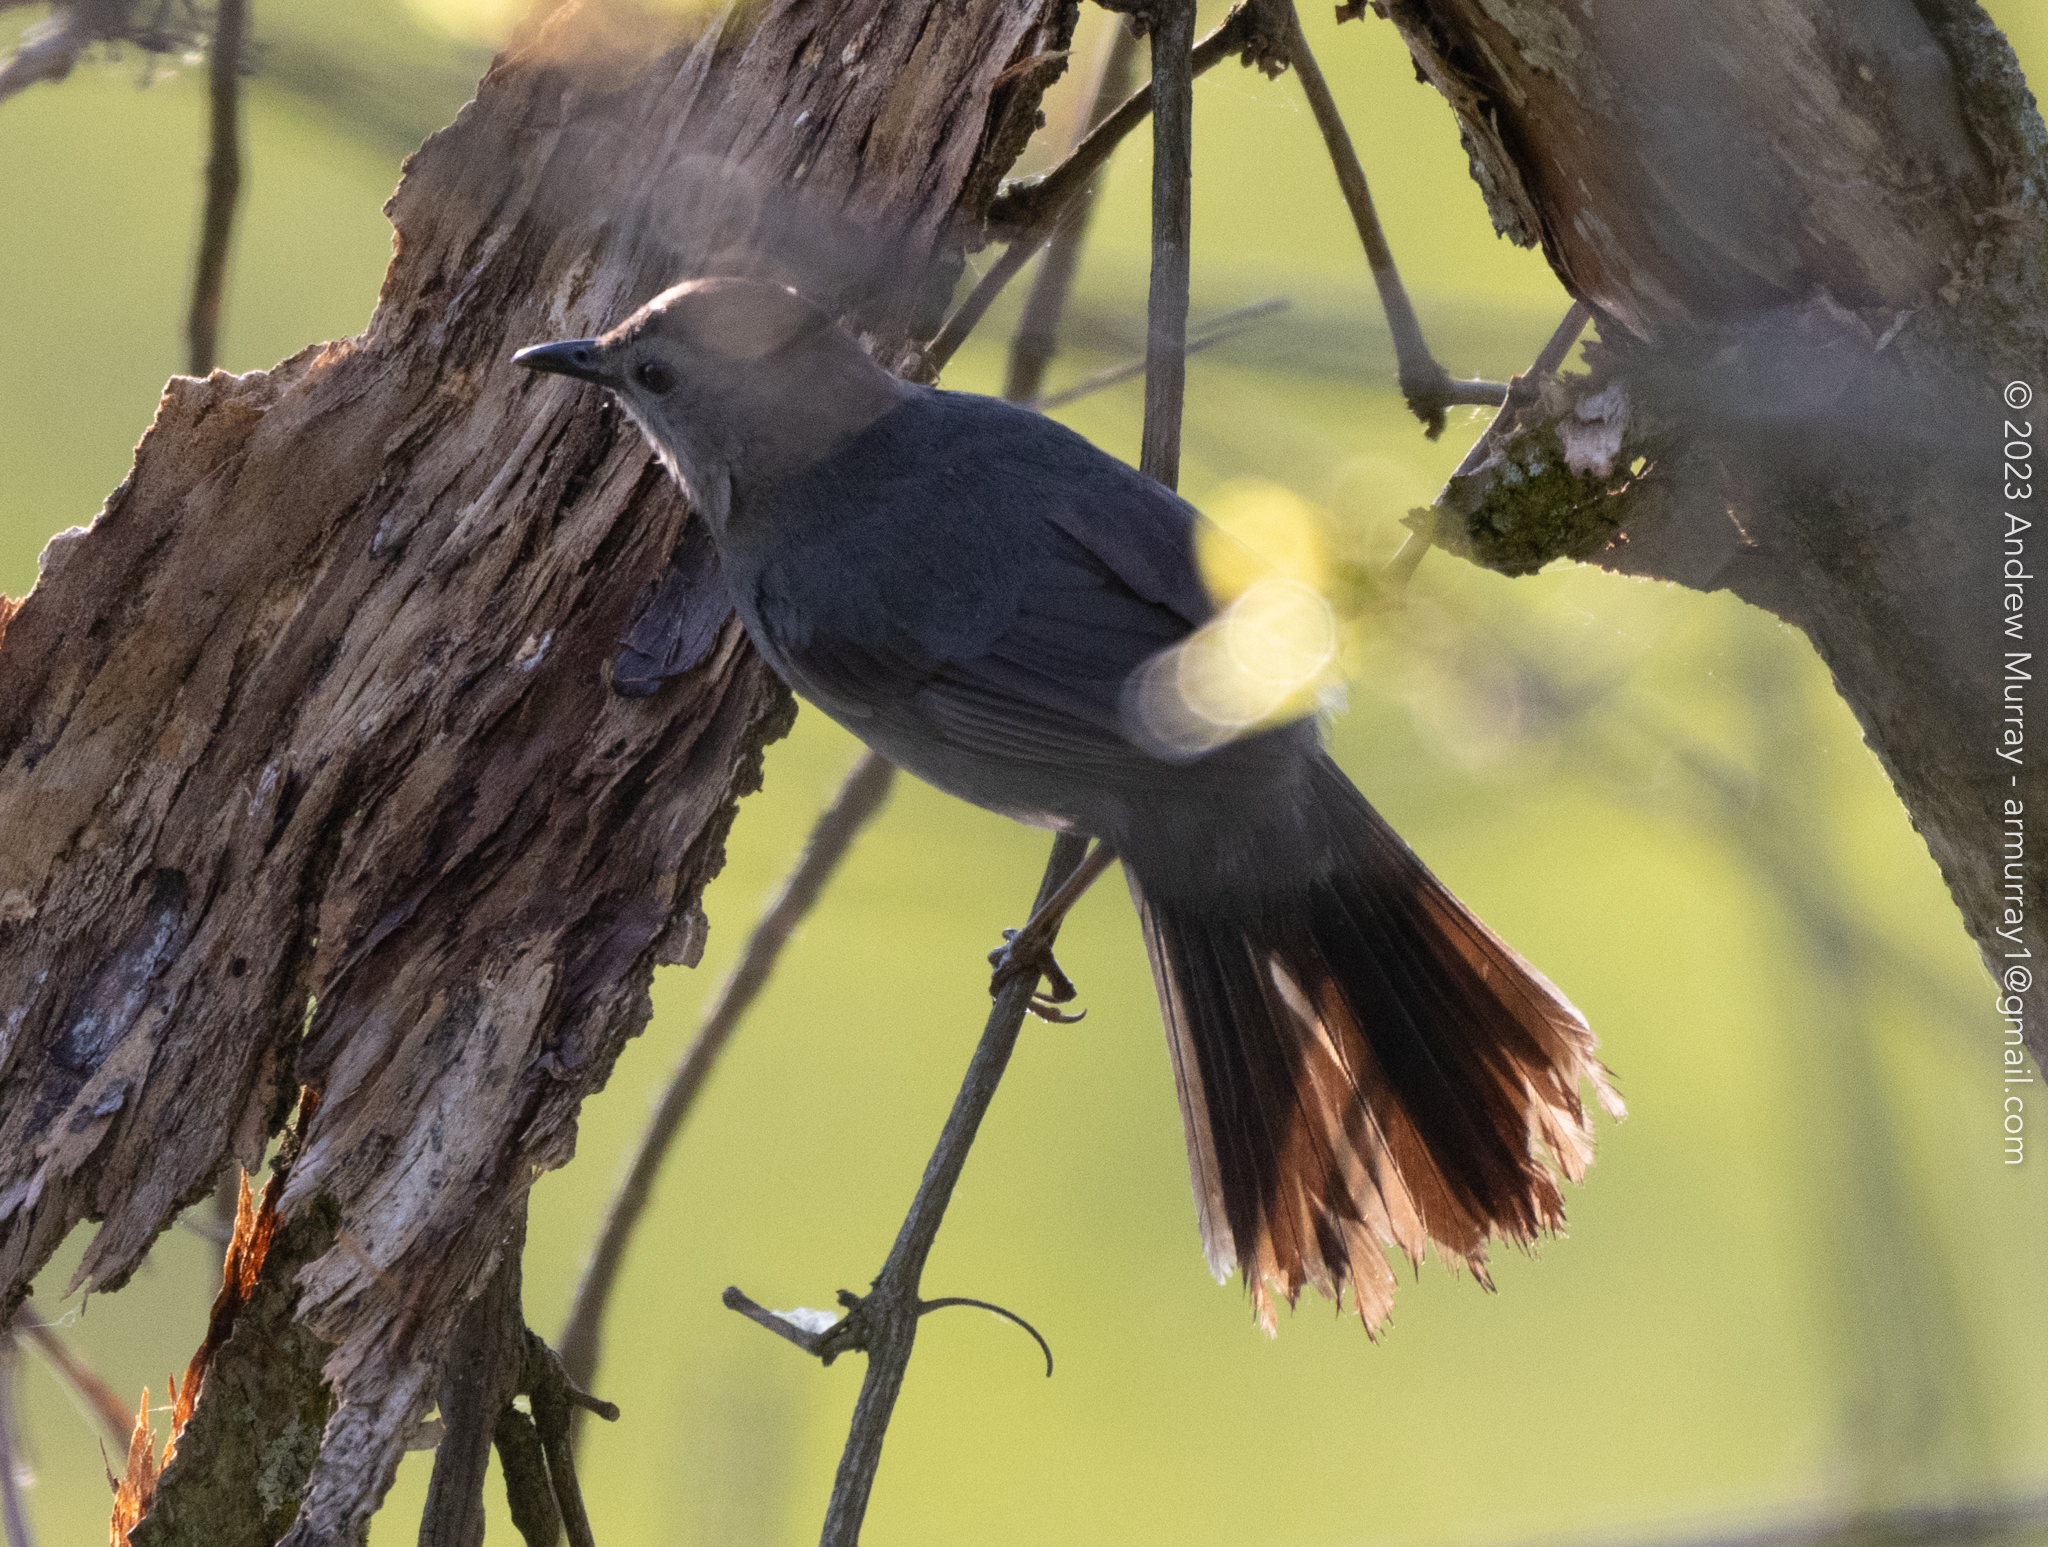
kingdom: Animalia
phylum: Chordata
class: Aves
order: Passeriformes
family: Mimidae
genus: Dumetella
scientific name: Dumetella carolinensis
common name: Gray catbird
